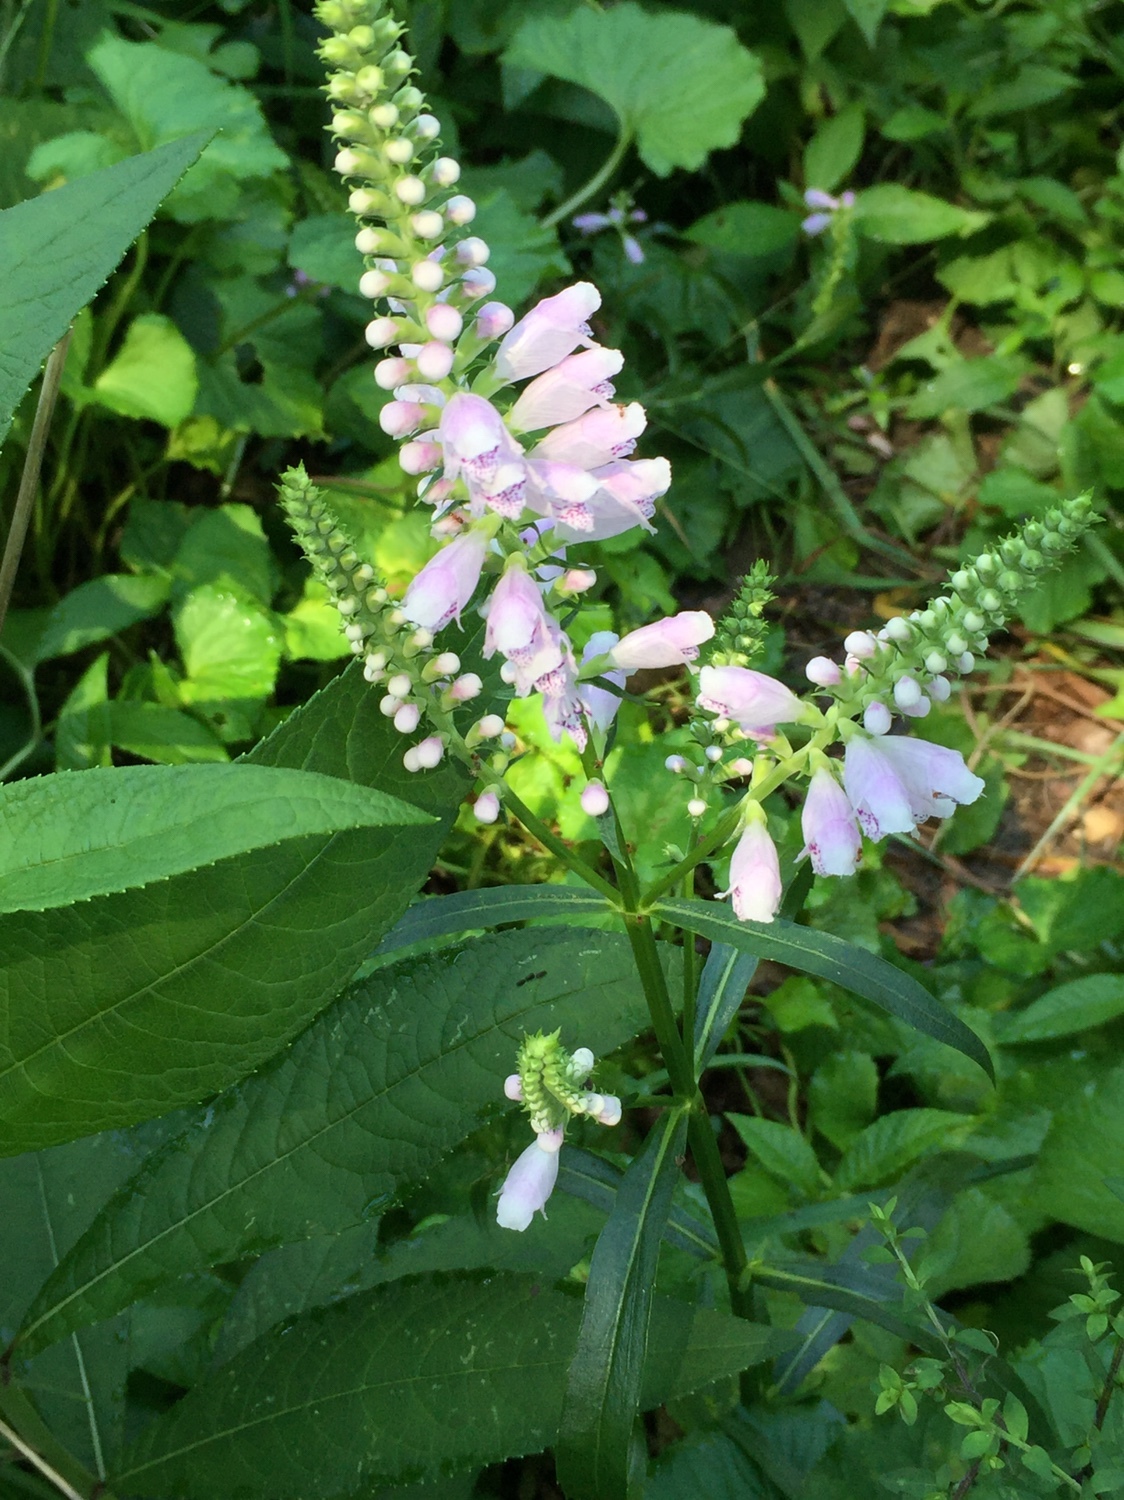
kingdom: Plantae
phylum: Tracheophyta
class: Magnoliopsida
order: Lamiales
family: Lamiaceae
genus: Physostegia
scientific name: Physostegia virginiana
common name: Obedient-plant
